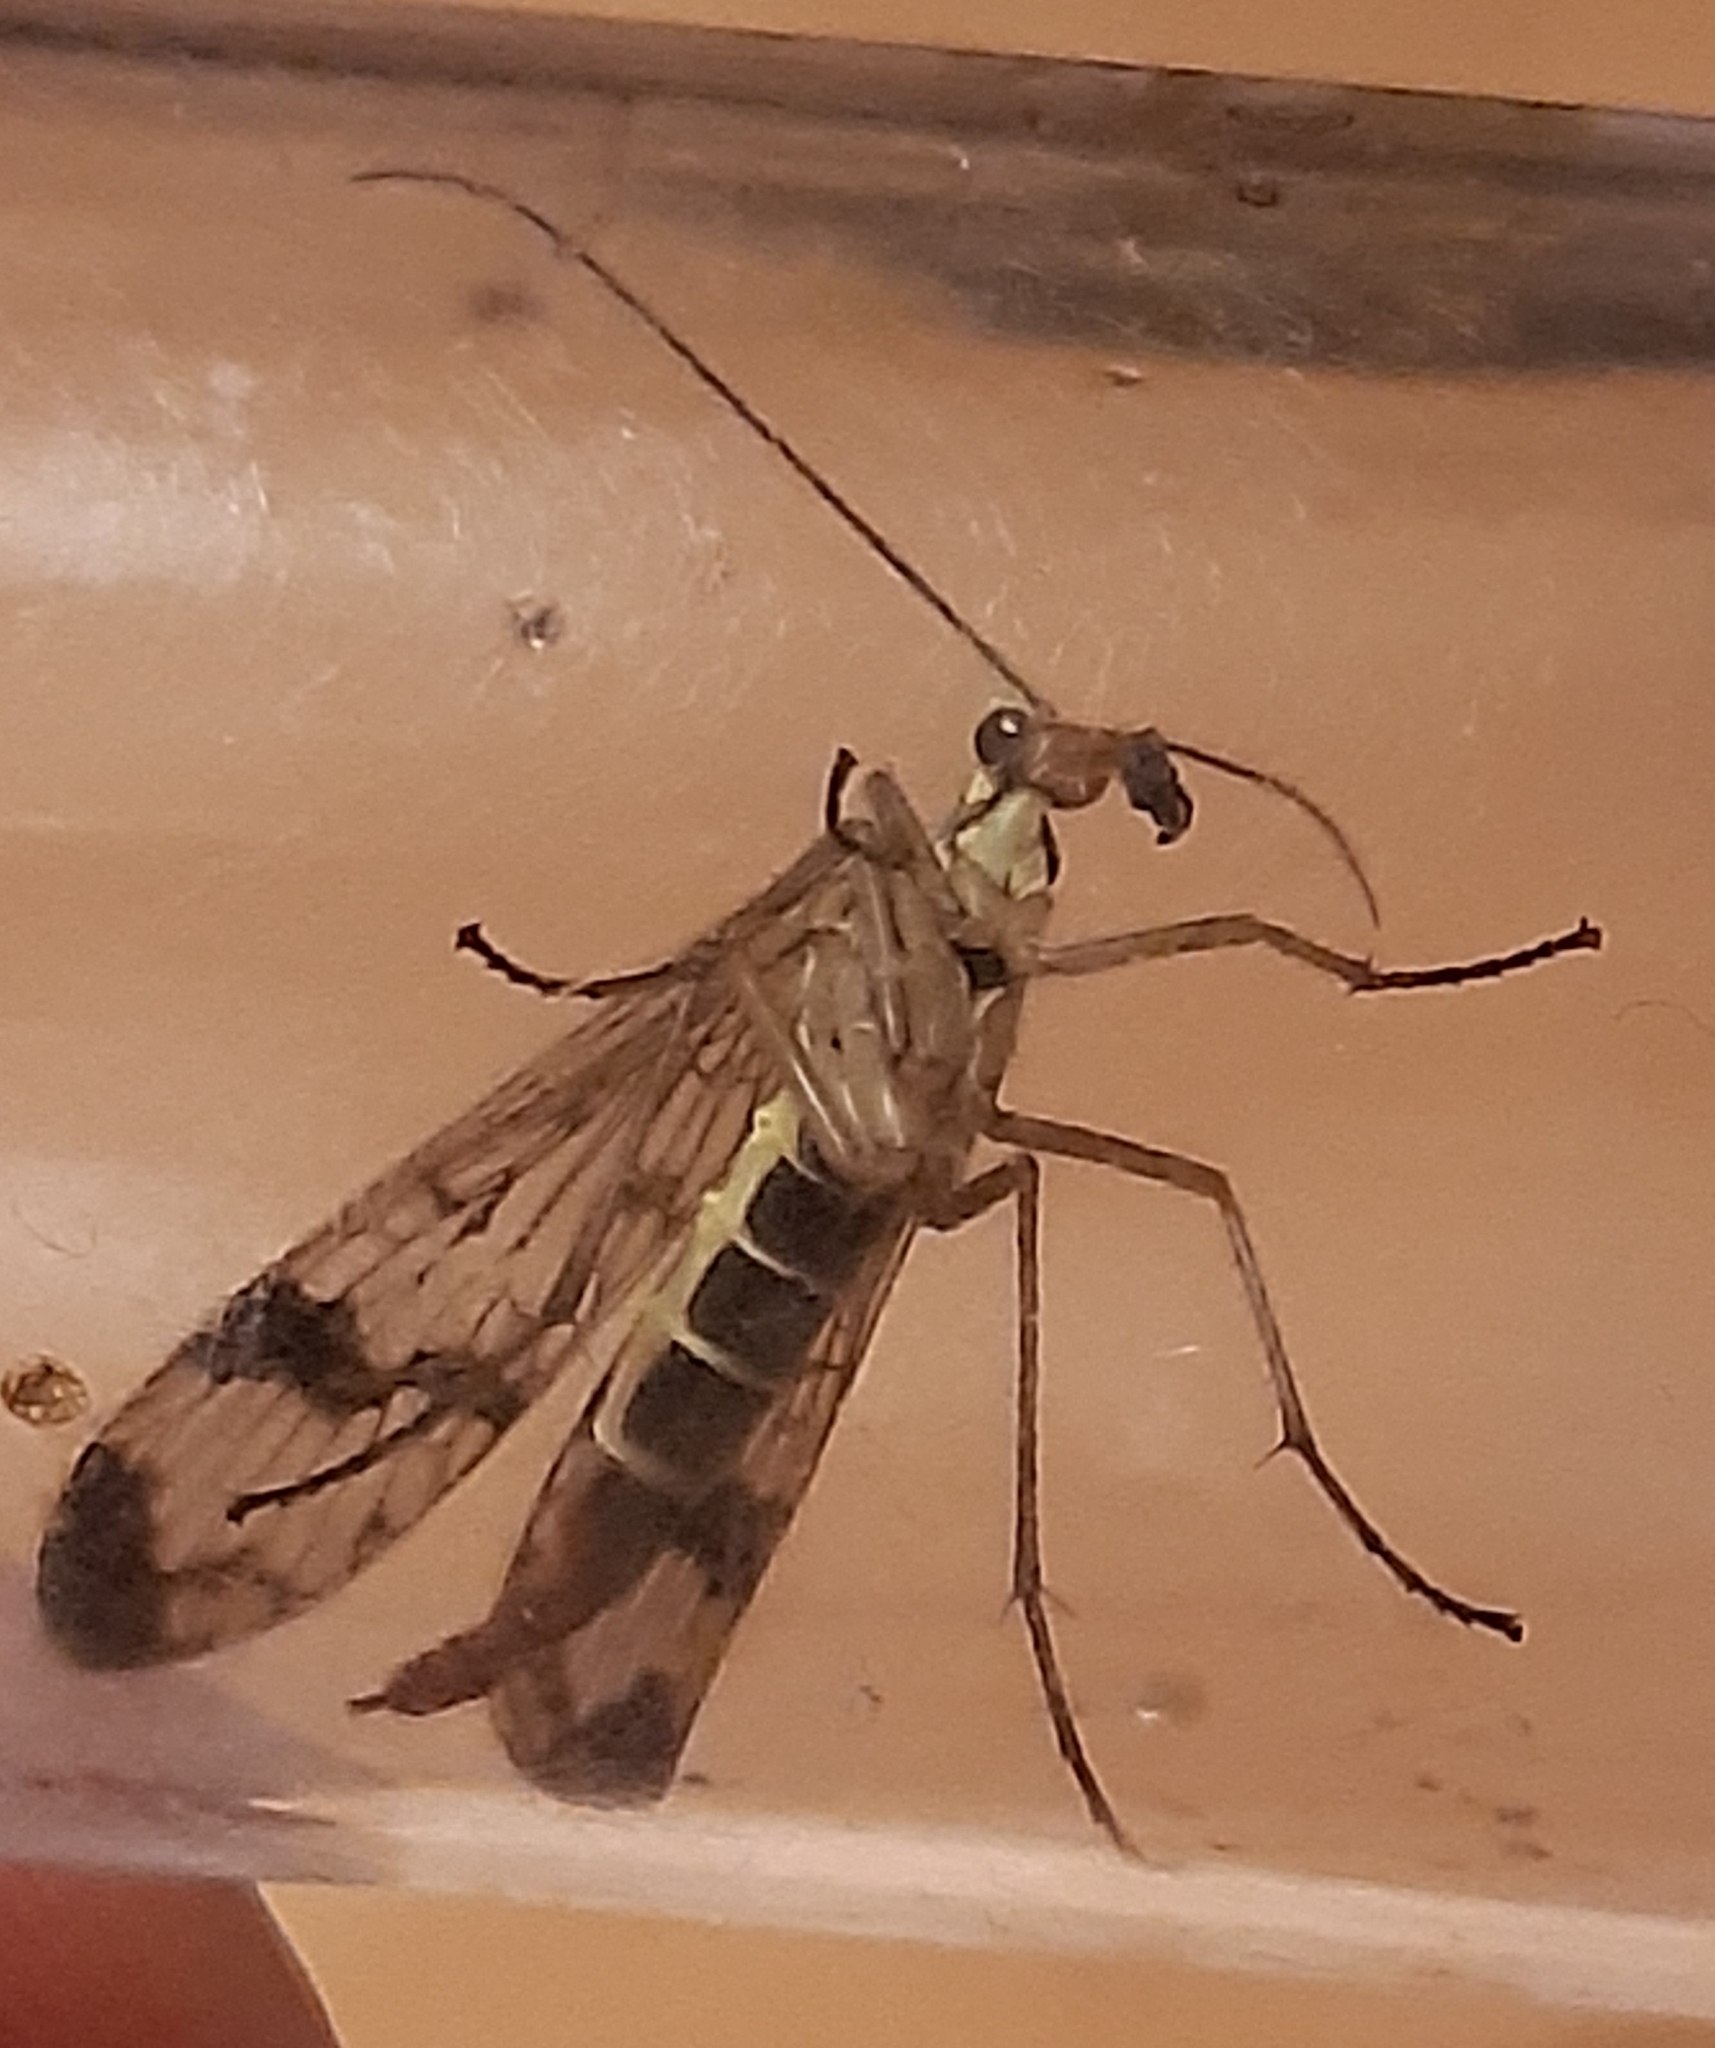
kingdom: Animalia
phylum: Arthropoda
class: Insecta
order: Mecoptera
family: Panorpidae
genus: Panorpa
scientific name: Panorpa communis
